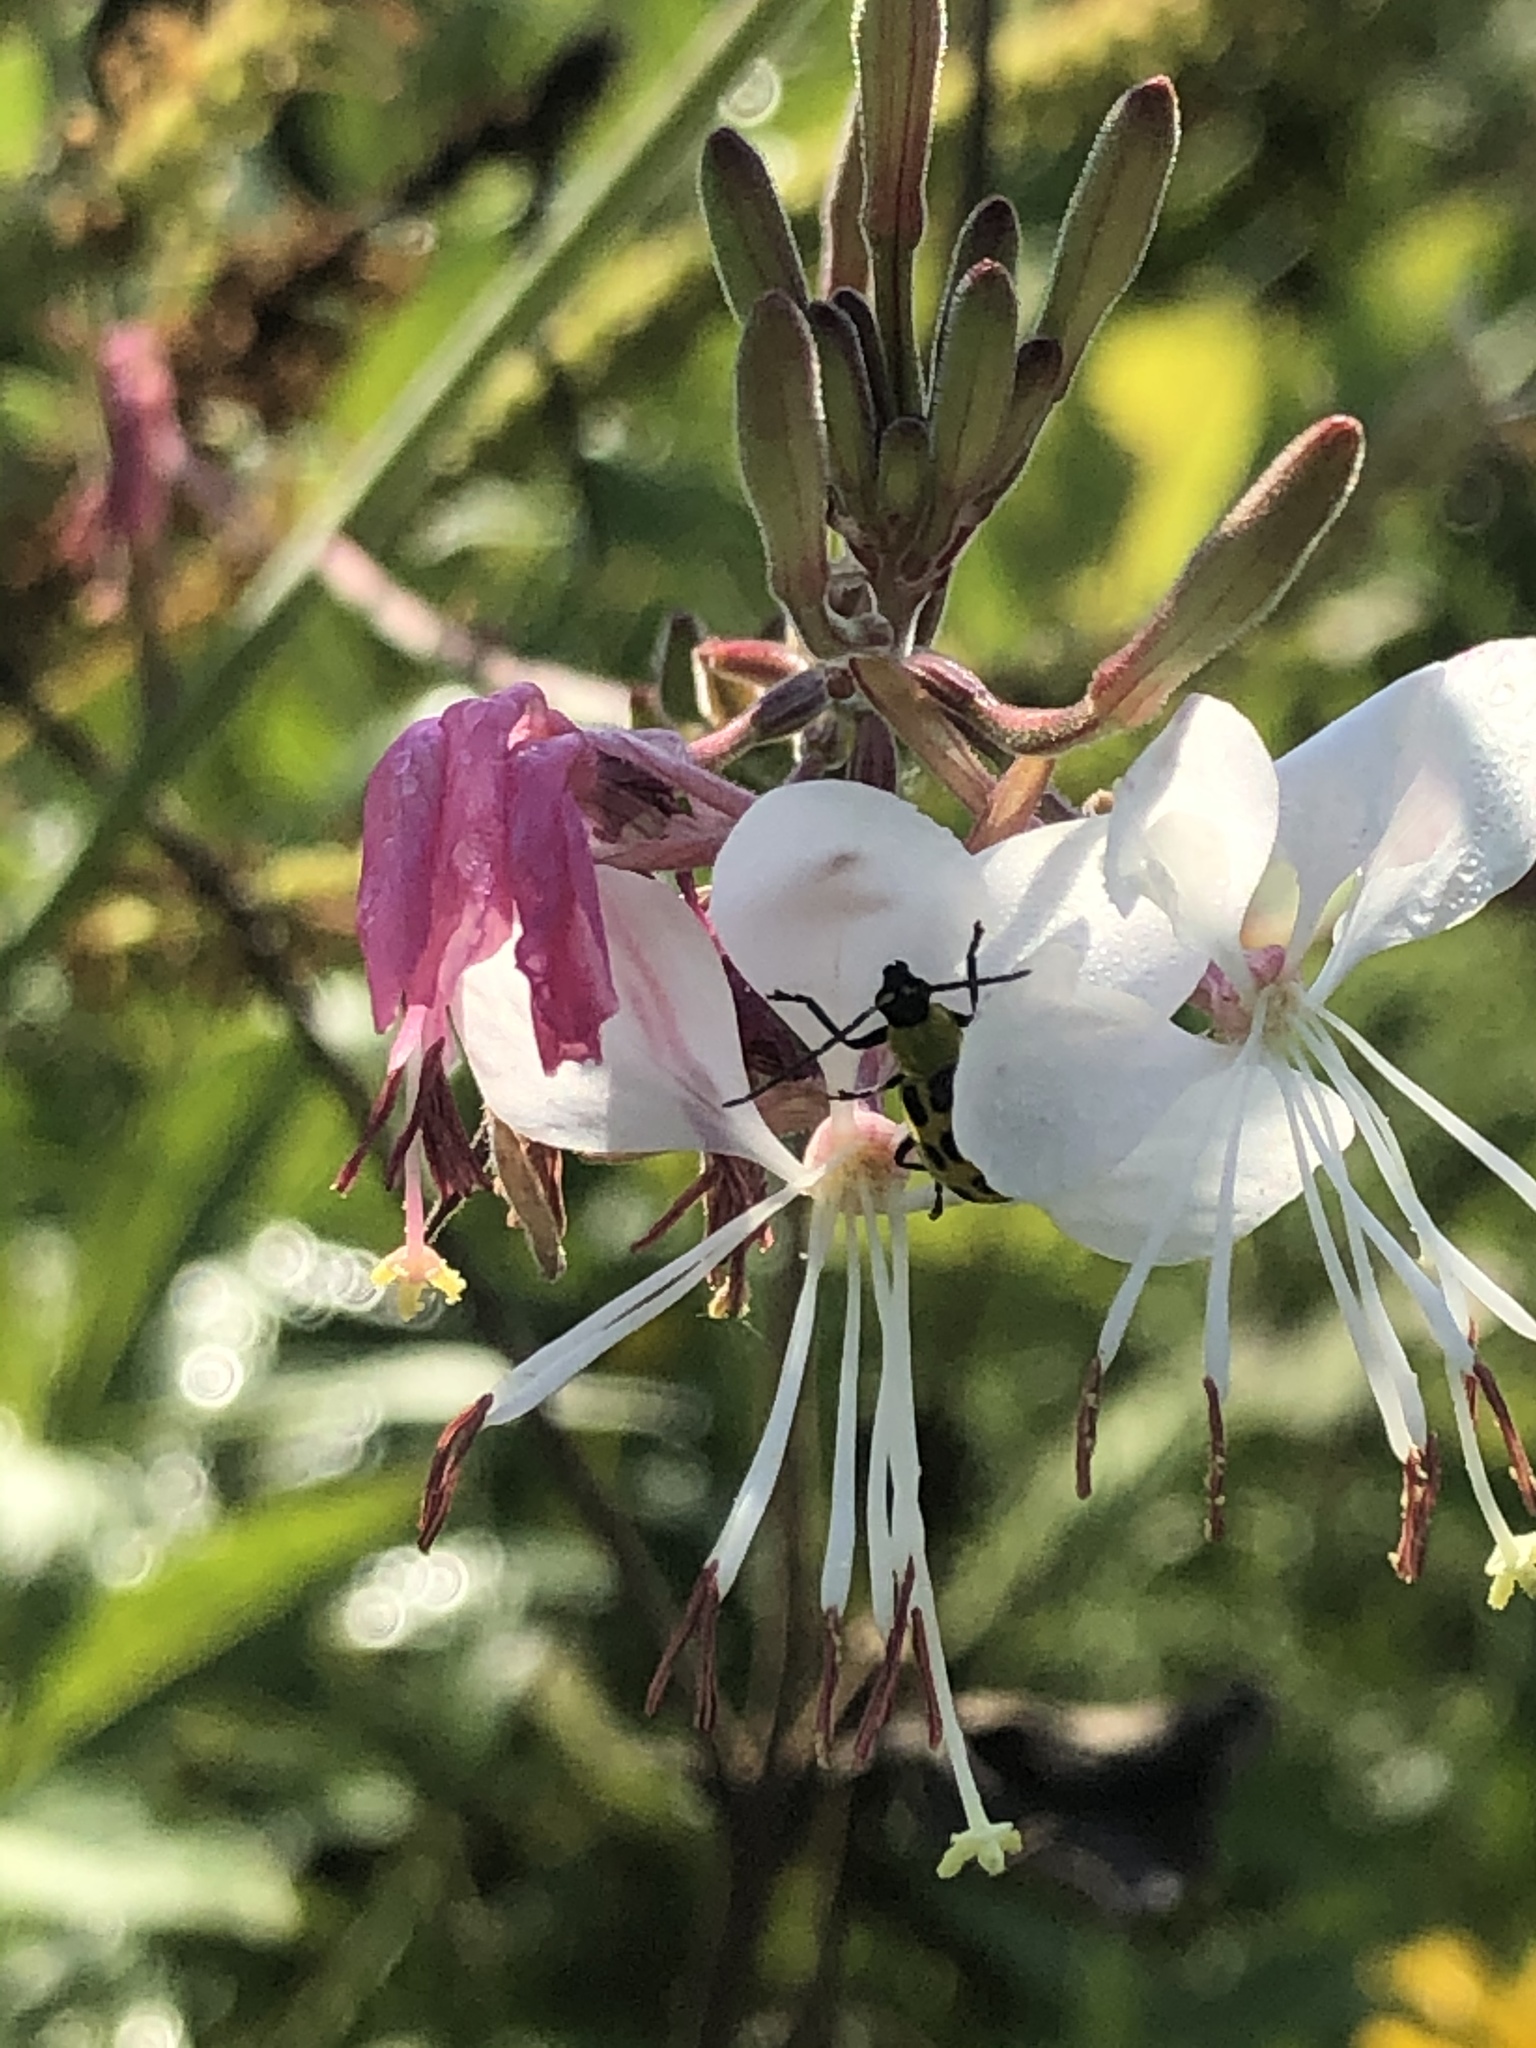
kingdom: Animalia
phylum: Arthropoda
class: Insecta
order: Coleoptera
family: Chrysomelidae
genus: Diabrotica
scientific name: Diabrotica undecimpunctata
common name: Spotted cucumber beetle
